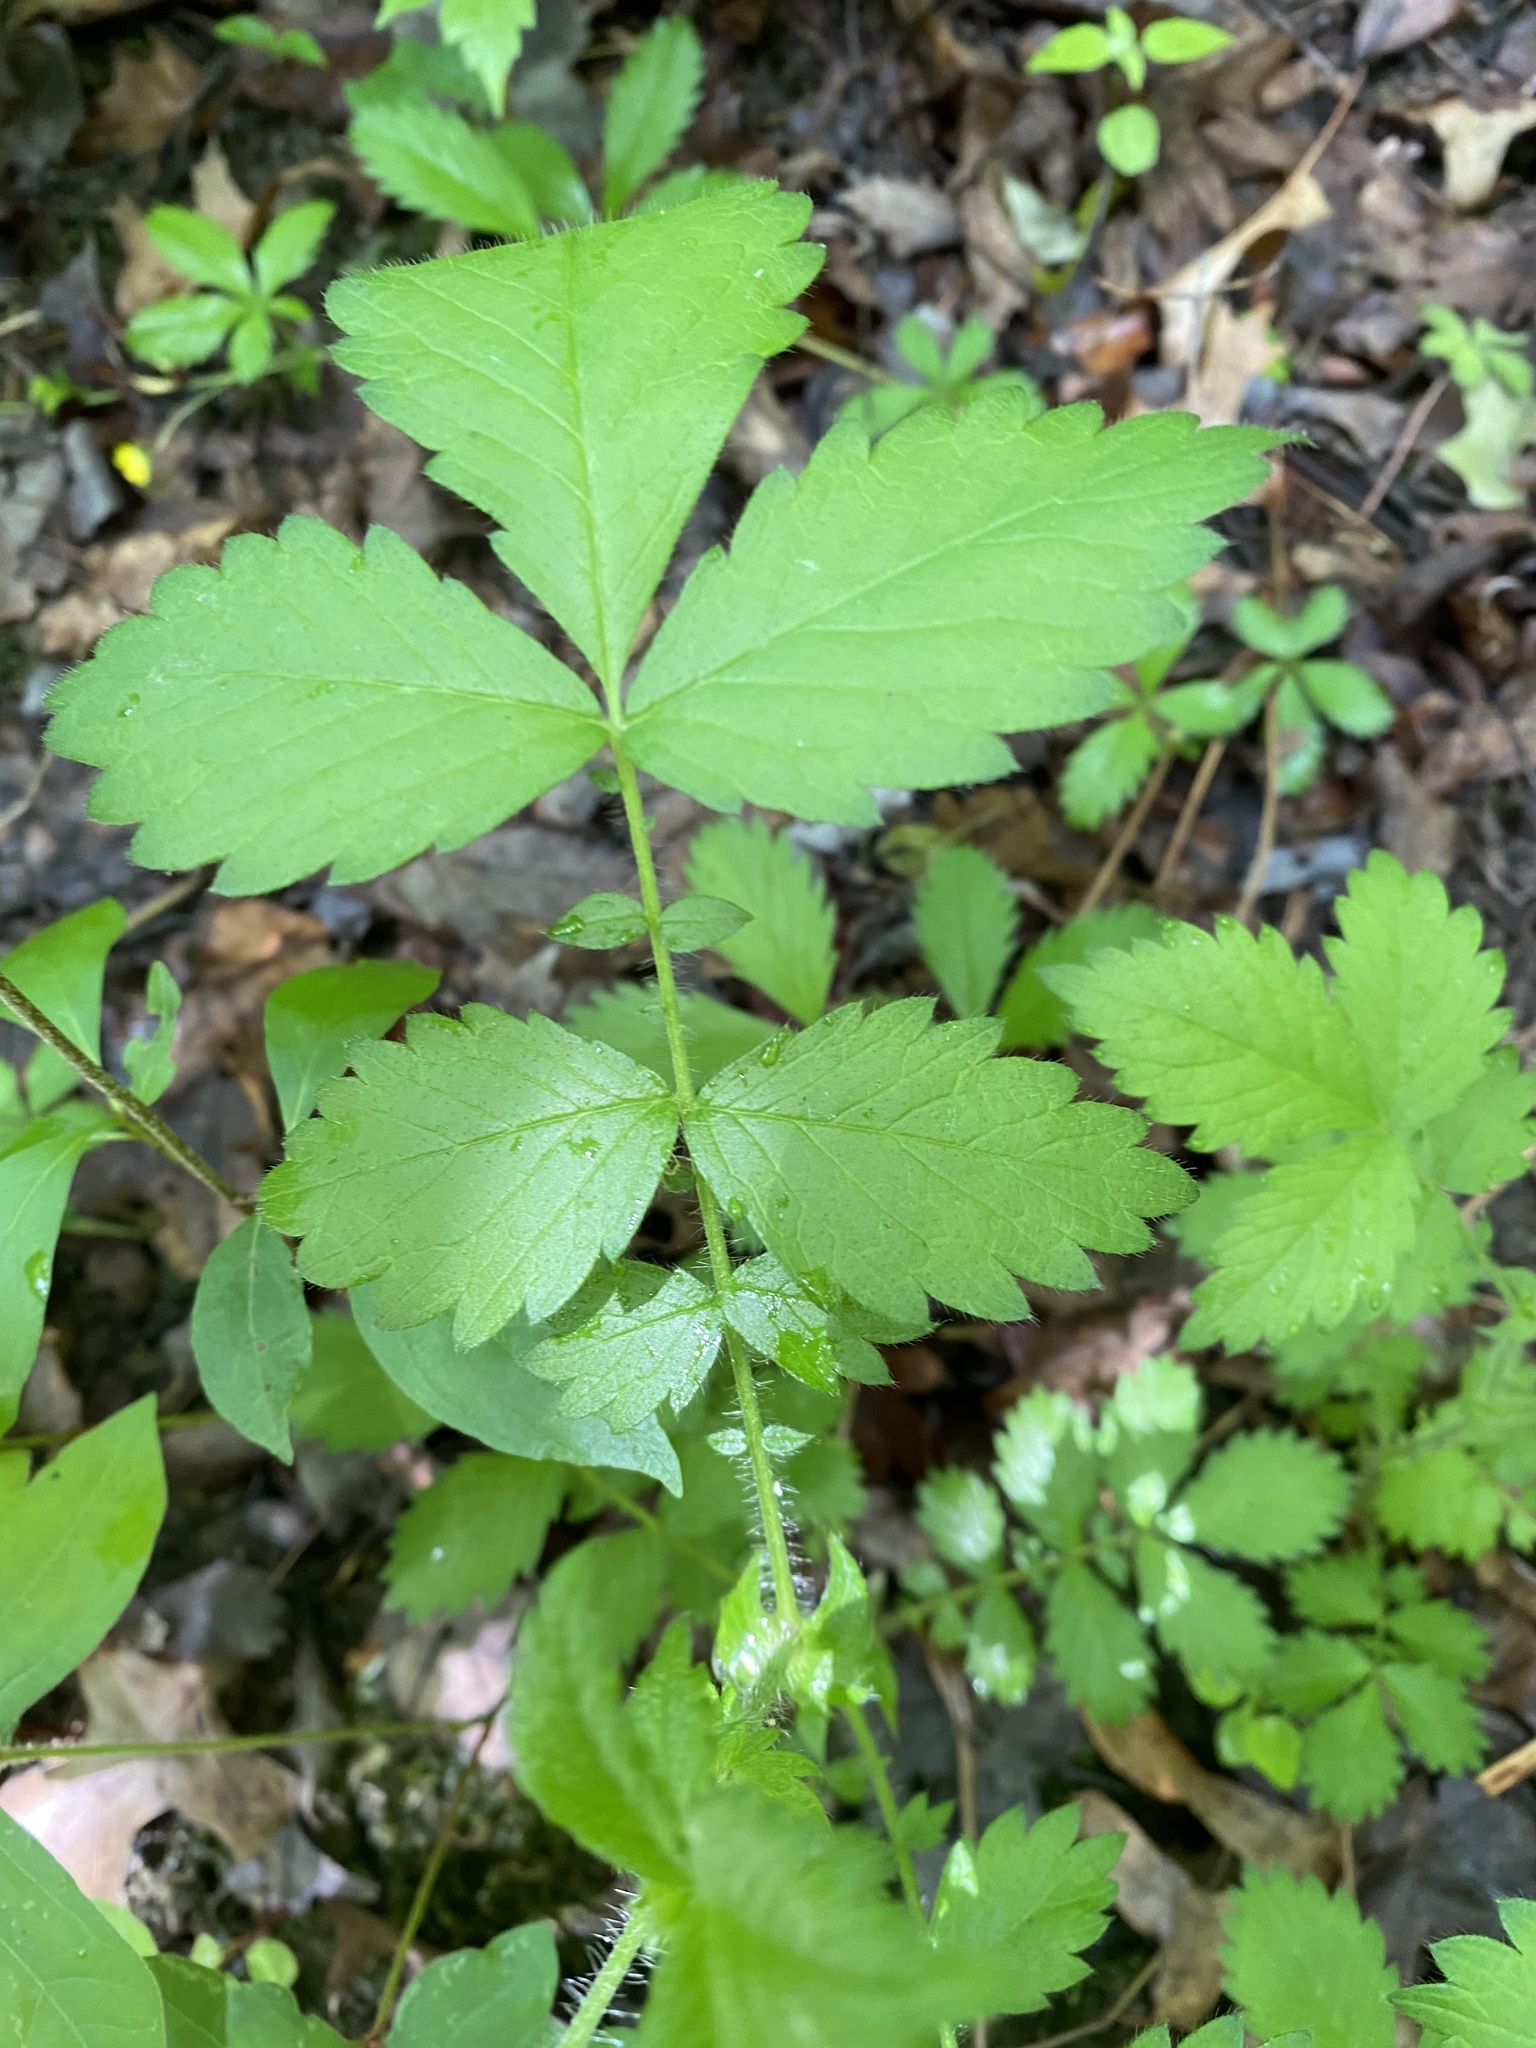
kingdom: Plantae
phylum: Tracheophyta
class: Magnoliopsida
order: Rosales
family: Rosaceae
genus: Agrimonia
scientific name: Agrimonia gryposepala
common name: Common agrimony
